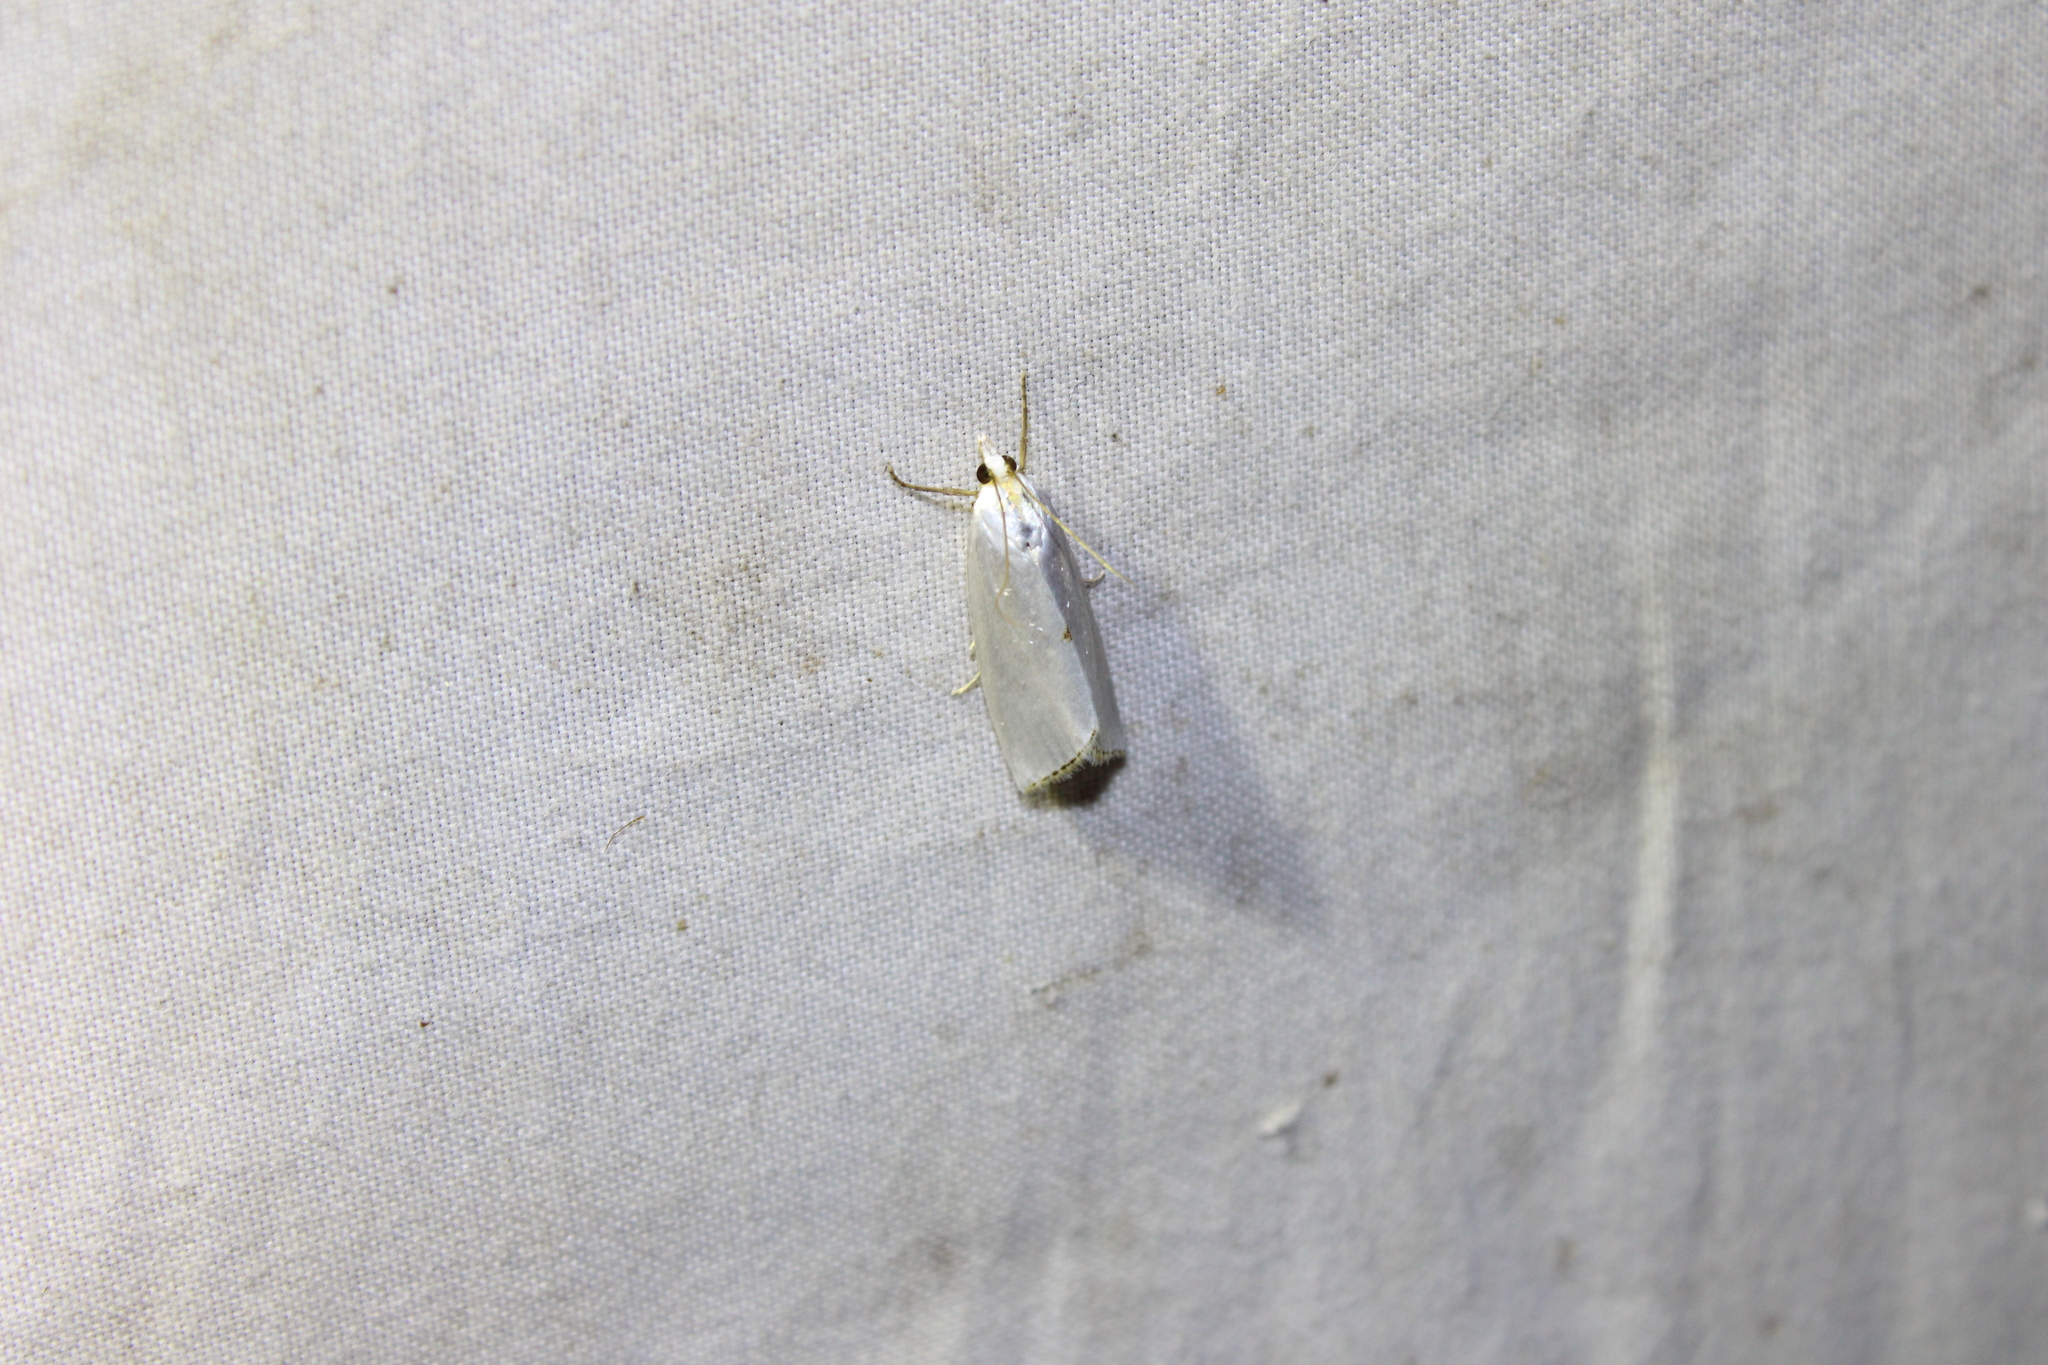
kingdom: Animalia
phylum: Arthropoda
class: Insecta
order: Lepidoptera
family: Crambidae
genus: Argyria
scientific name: Argyria nivalis
